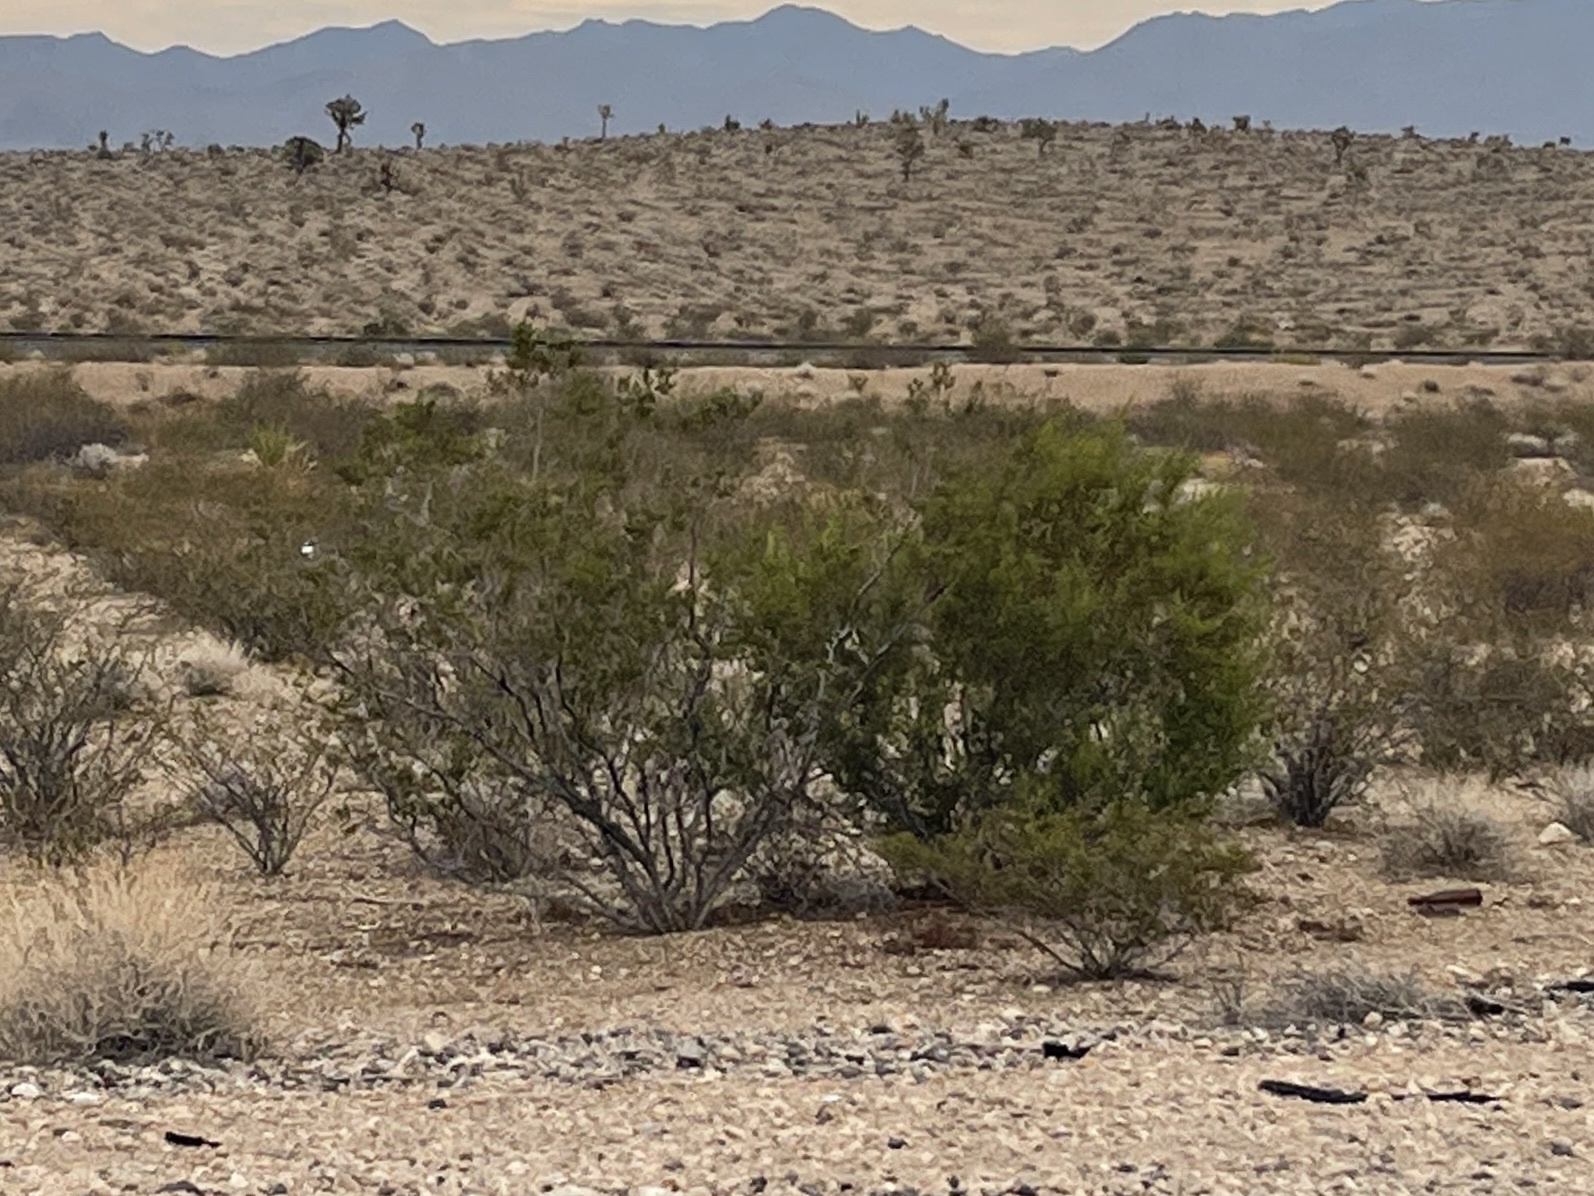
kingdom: Plantae
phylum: Tracheophyta
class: Magnoliopsida
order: Zygophyllales
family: Zygophyllaceae
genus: Larrea
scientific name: Larrea tridentata
